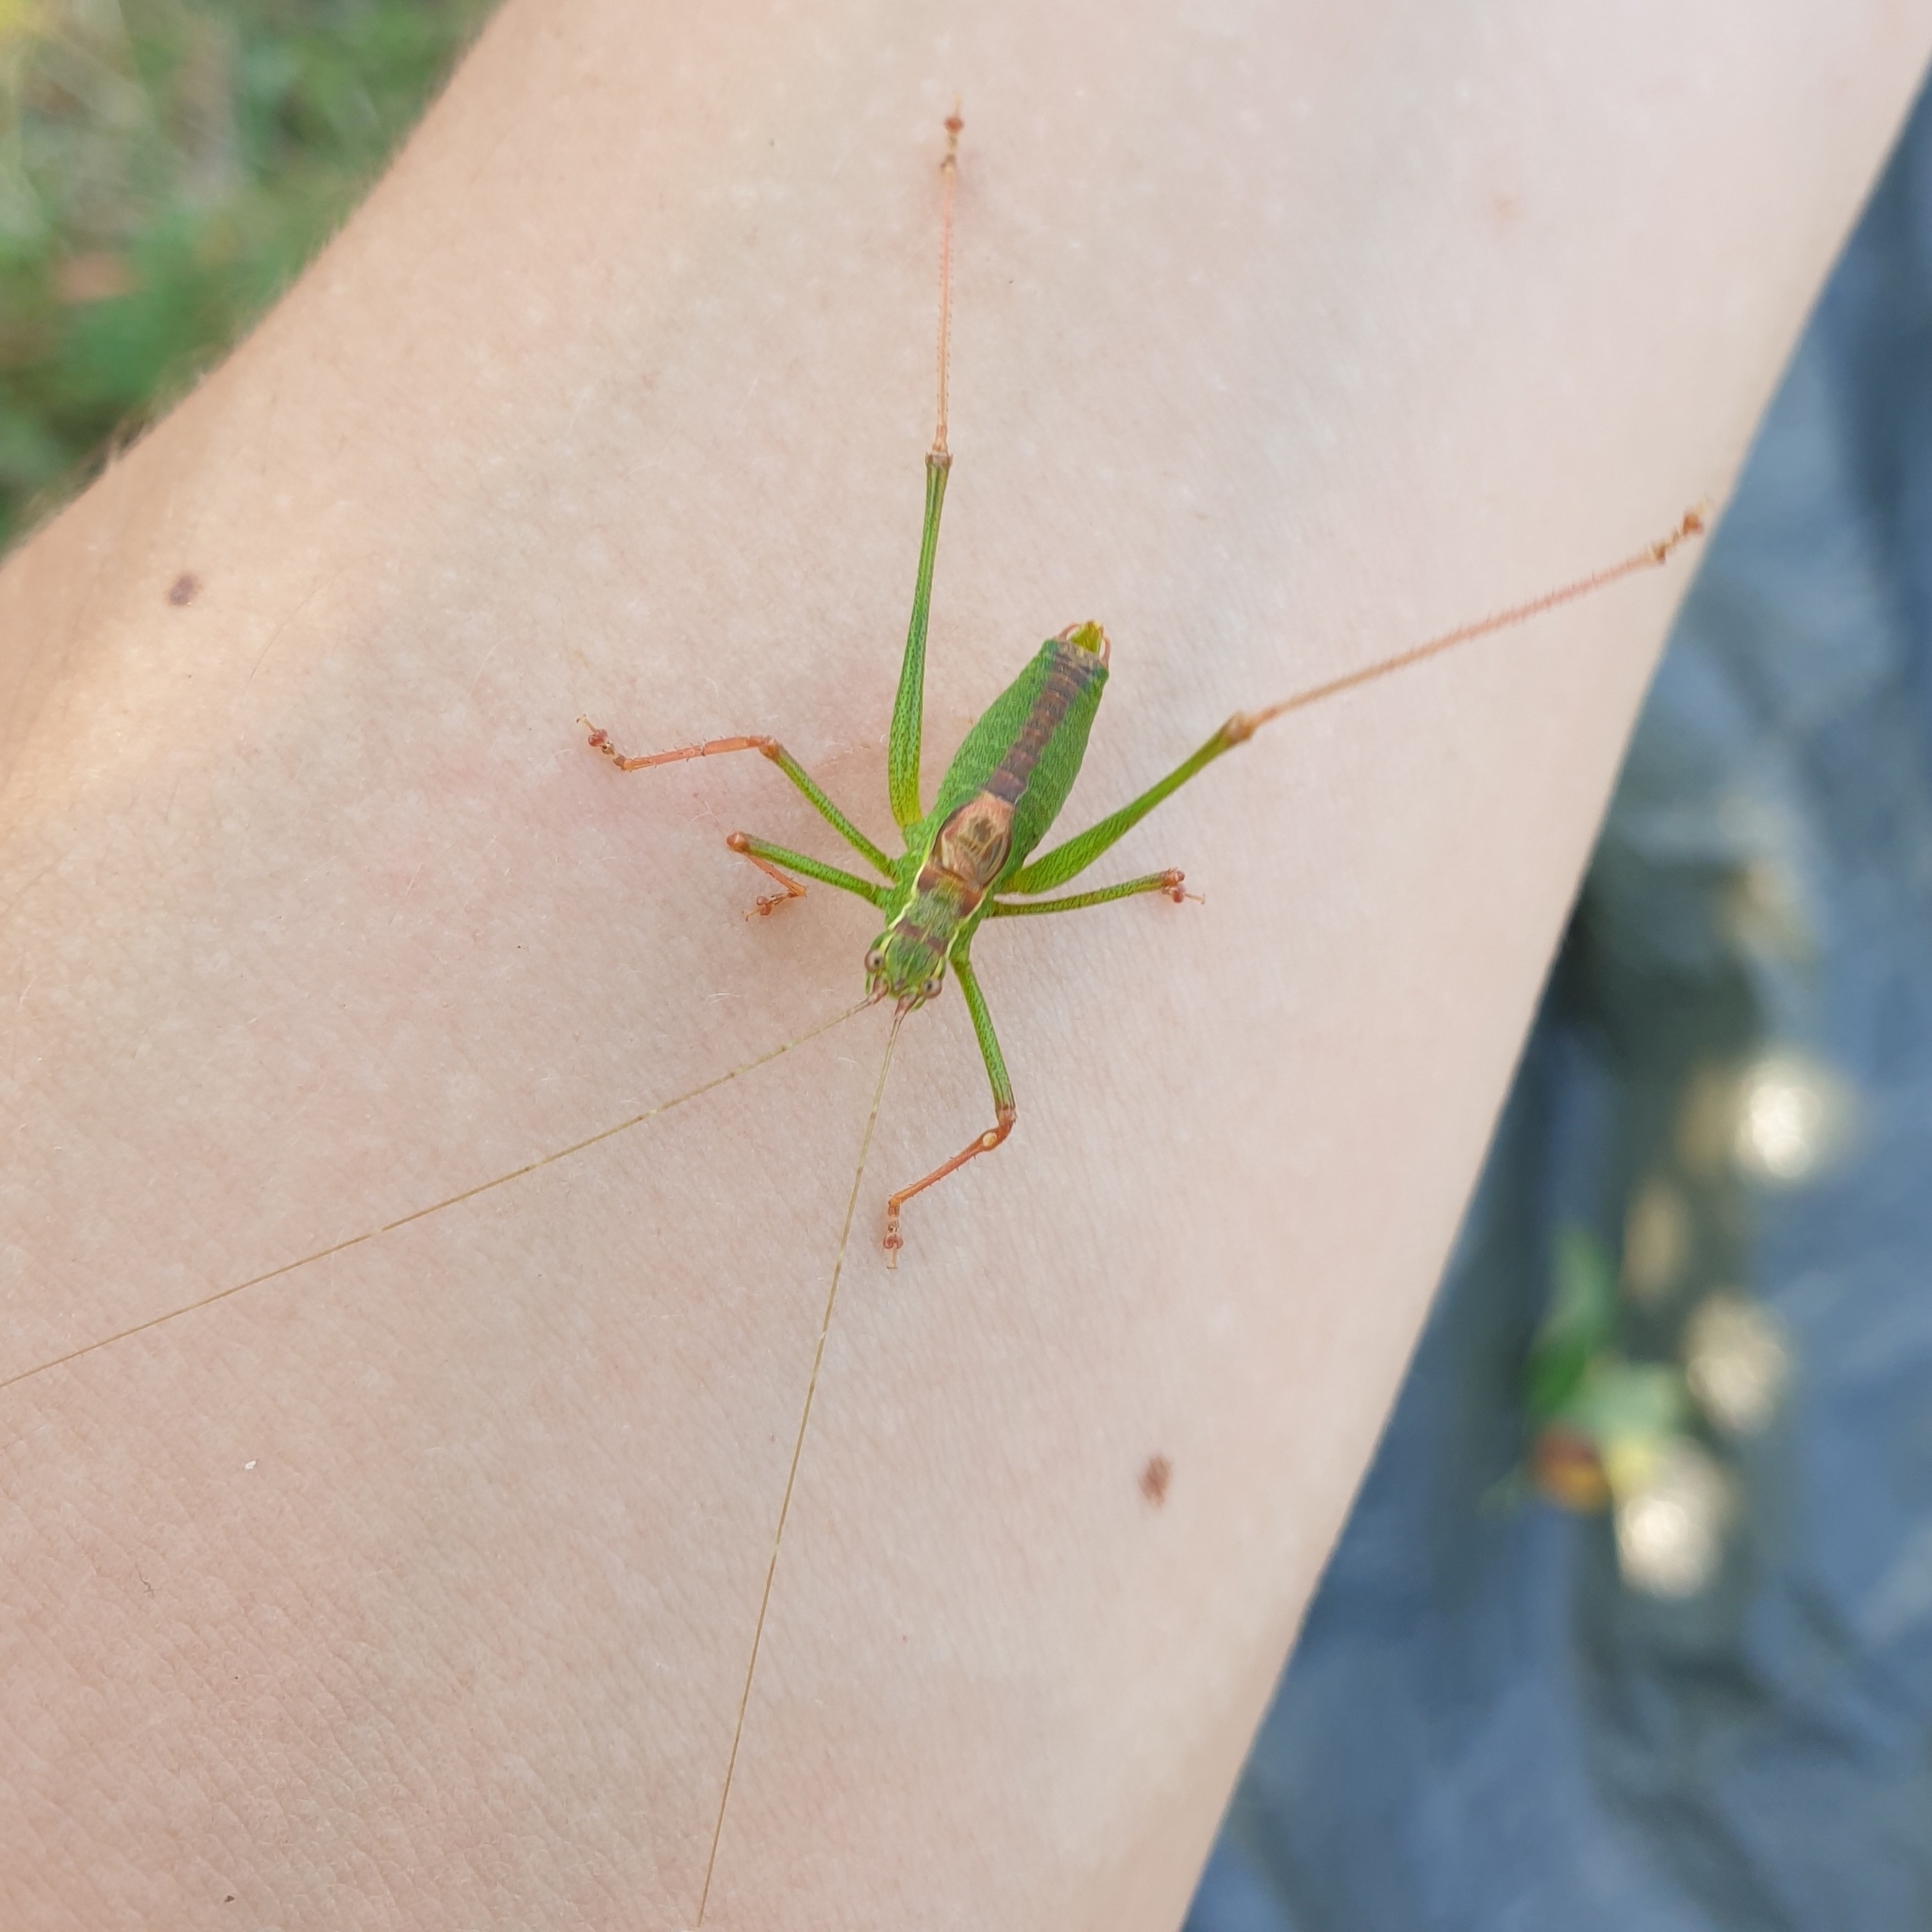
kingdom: Animalia
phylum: Arthropoda
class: Insecta
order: Orthoptera
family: Tettigoniidae
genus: Leptophyes
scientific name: Leptophyes punctatissima
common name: Speckled bush-cricket
